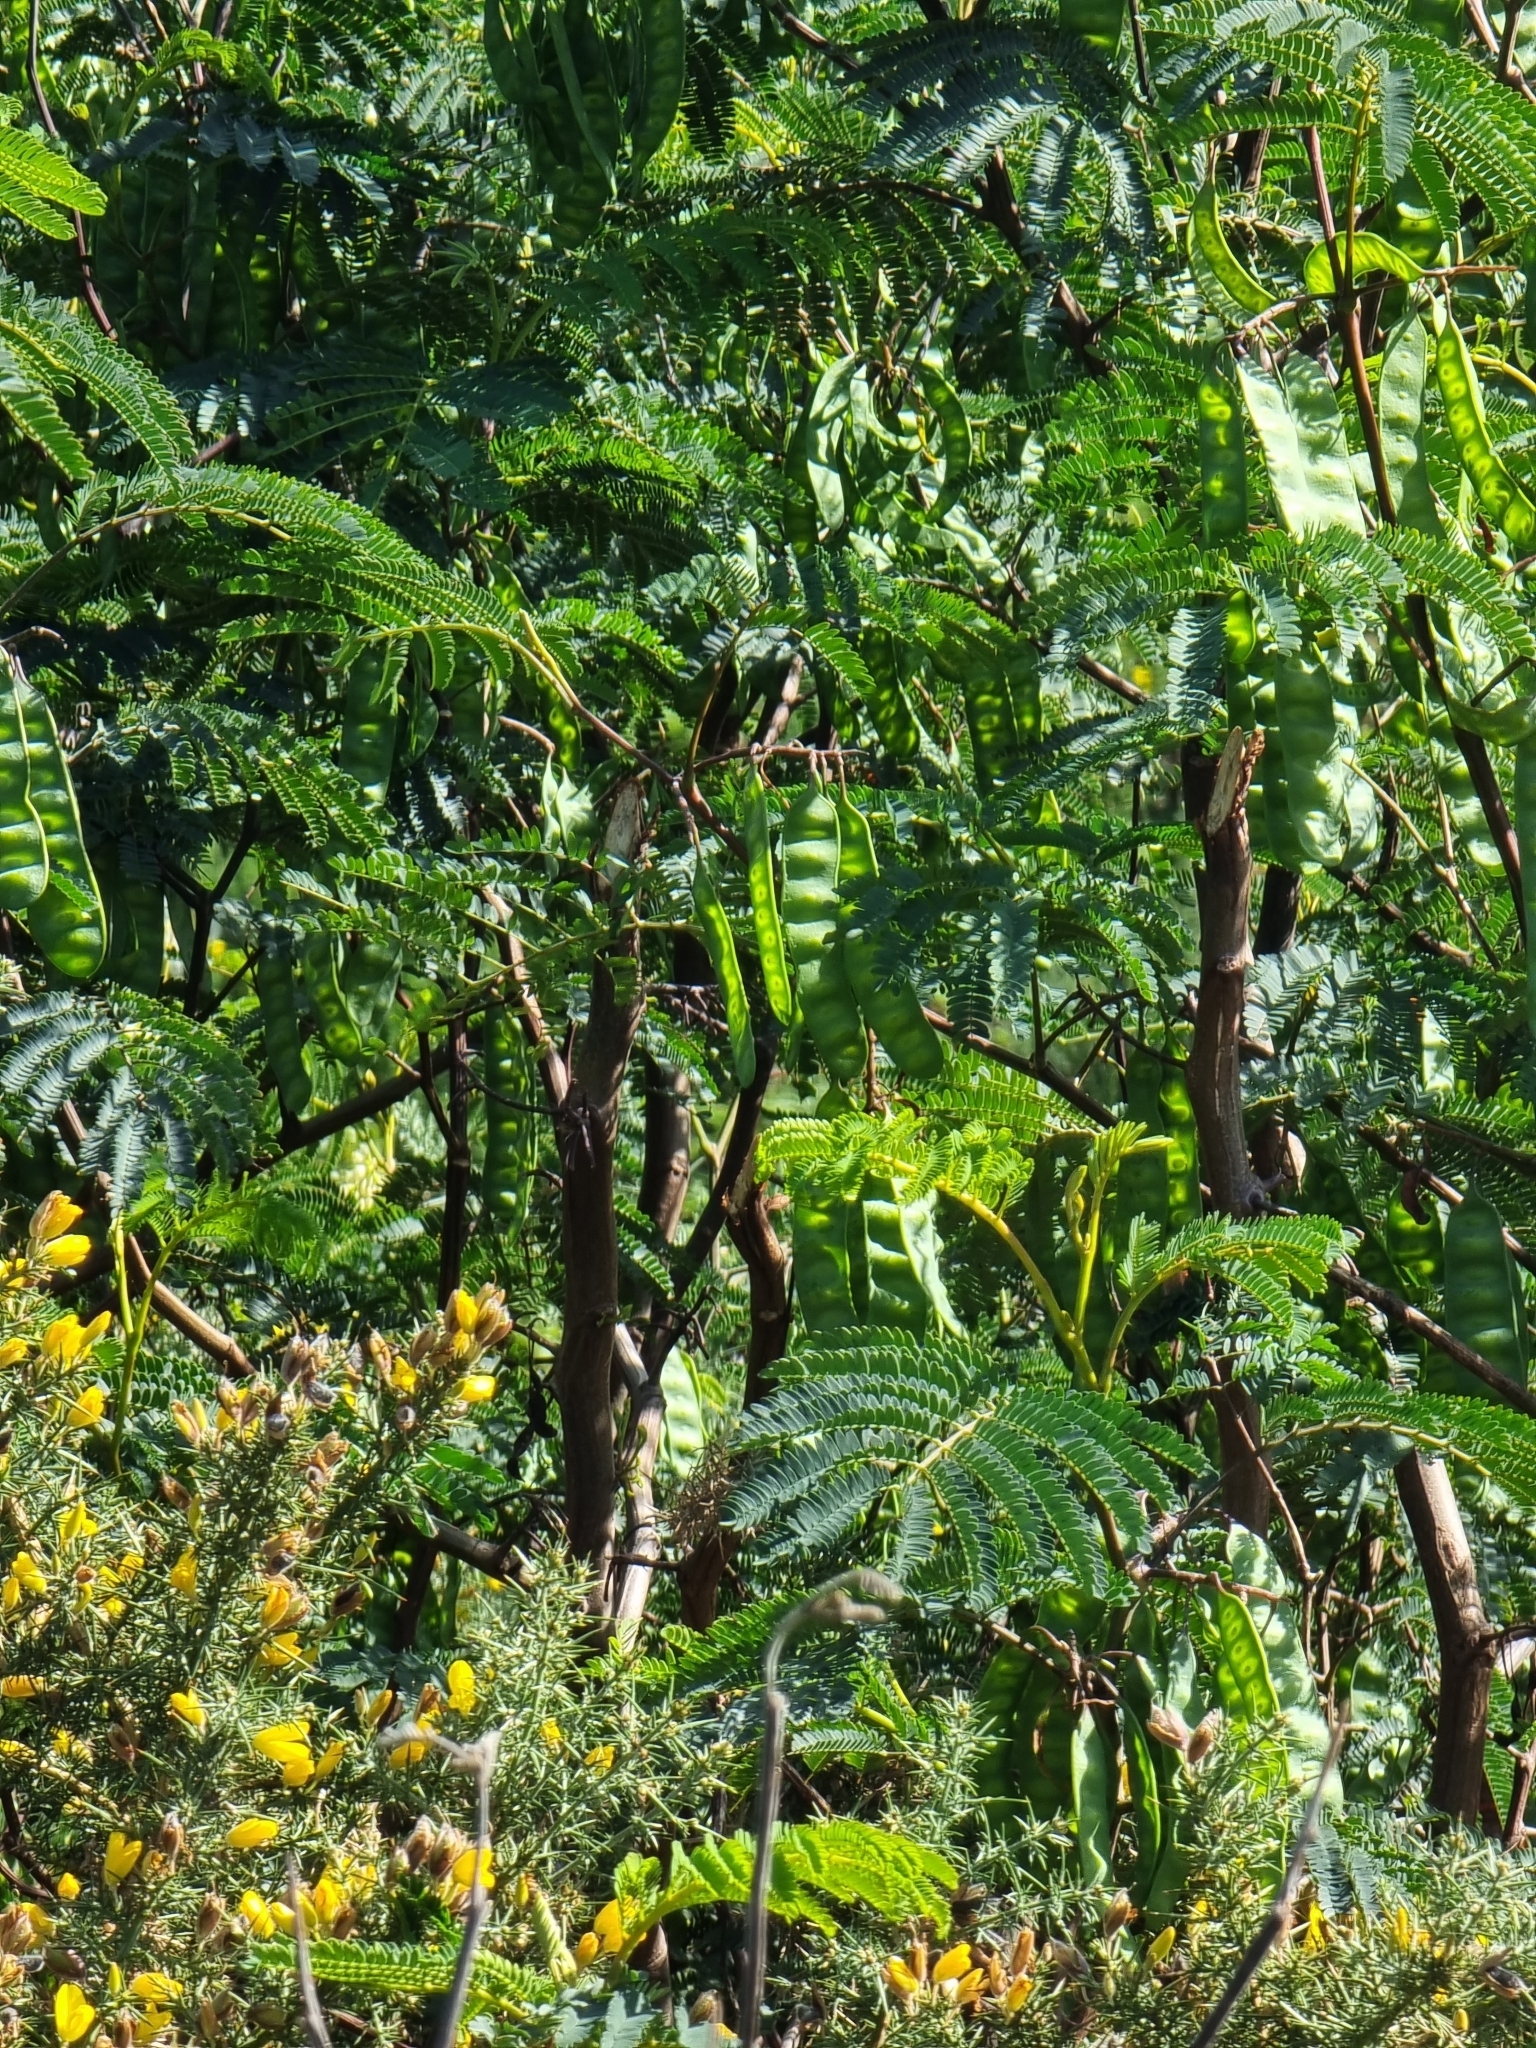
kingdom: Plantae
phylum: Tracheophyta
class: Magnoliopsida
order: Fabales
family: Fabaceae
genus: Paraserianthes
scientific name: Paraserianthes lophantha
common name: Plume albizia
